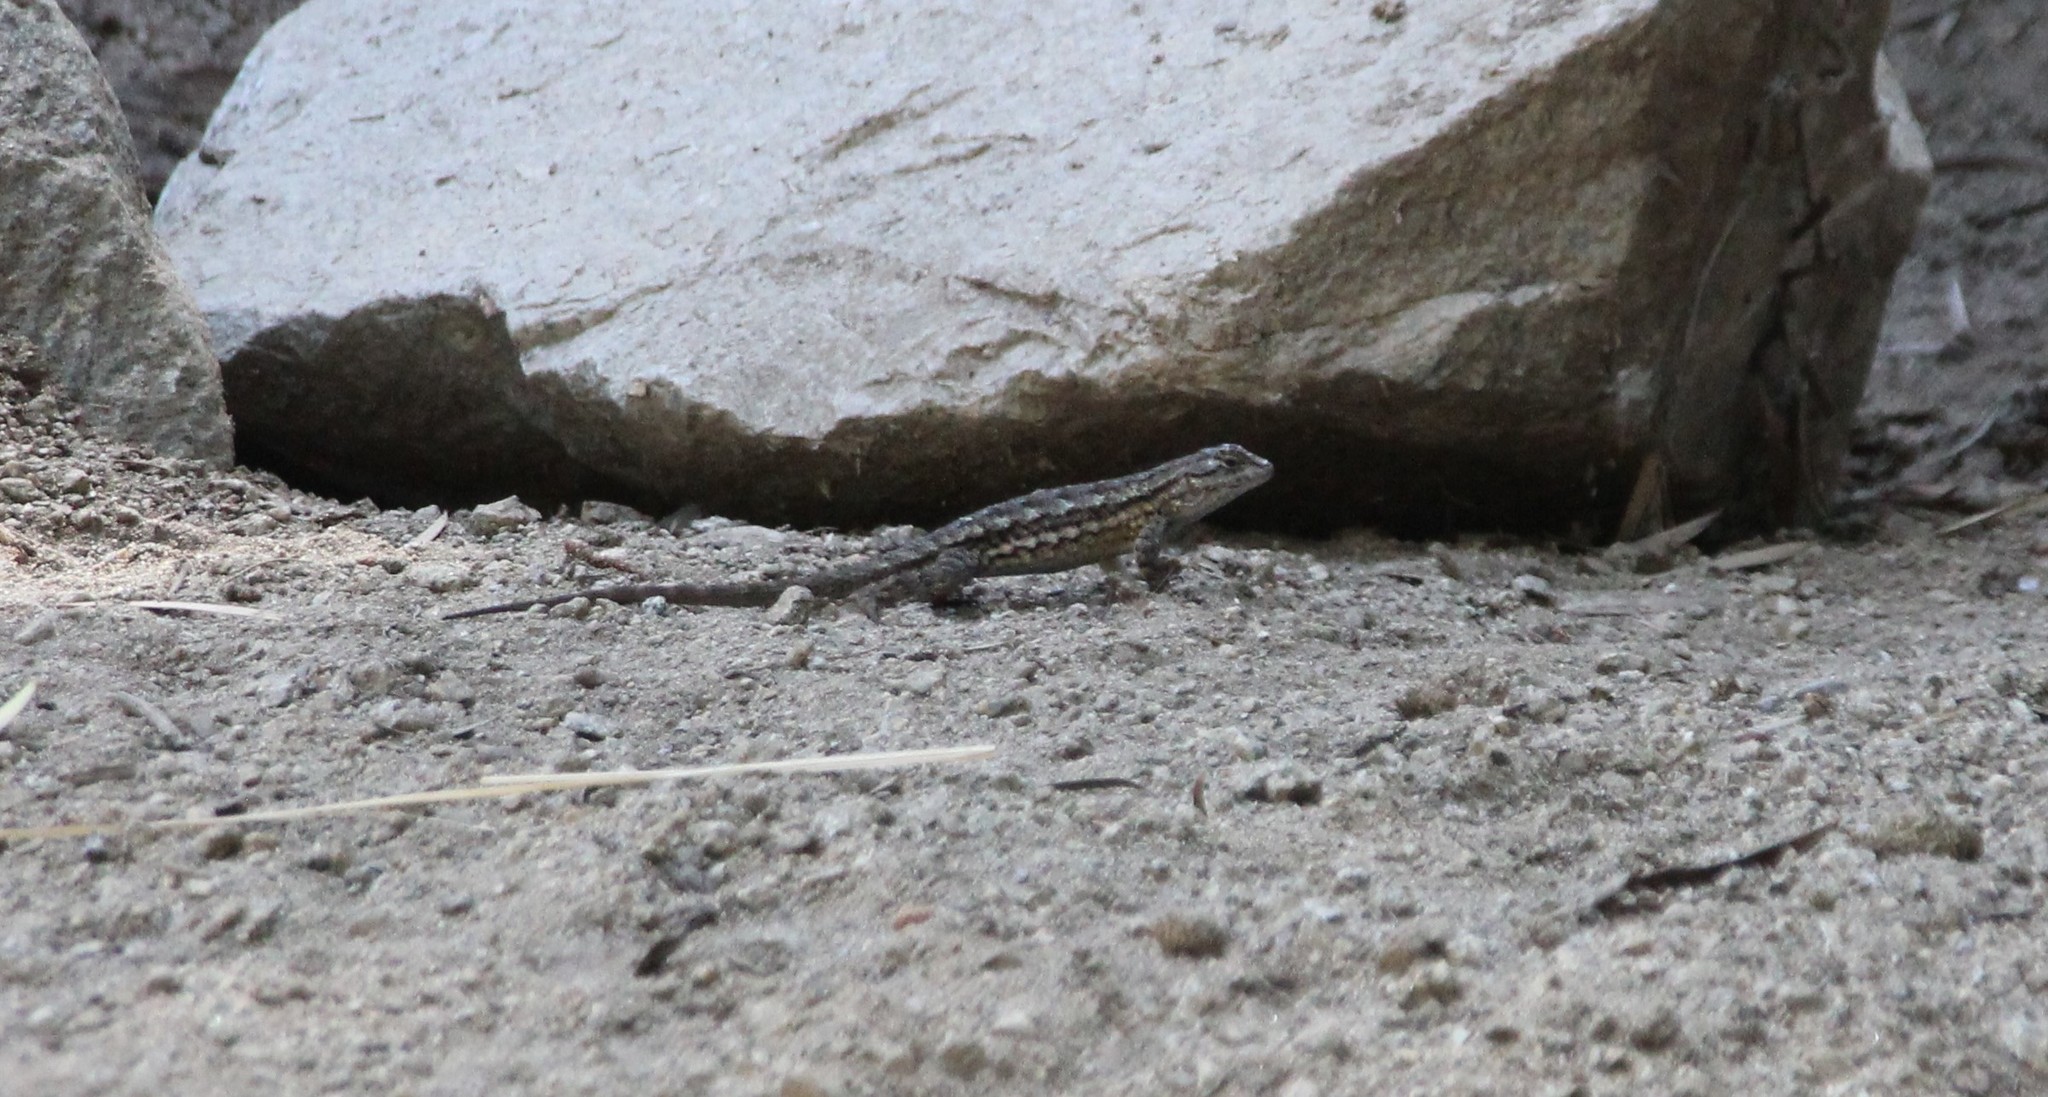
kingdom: Animalia
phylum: Chordata
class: Squamata
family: Phrynosomatidae
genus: Sceloporus
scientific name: Sceloporus occidentalis
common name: Western fence lizard
